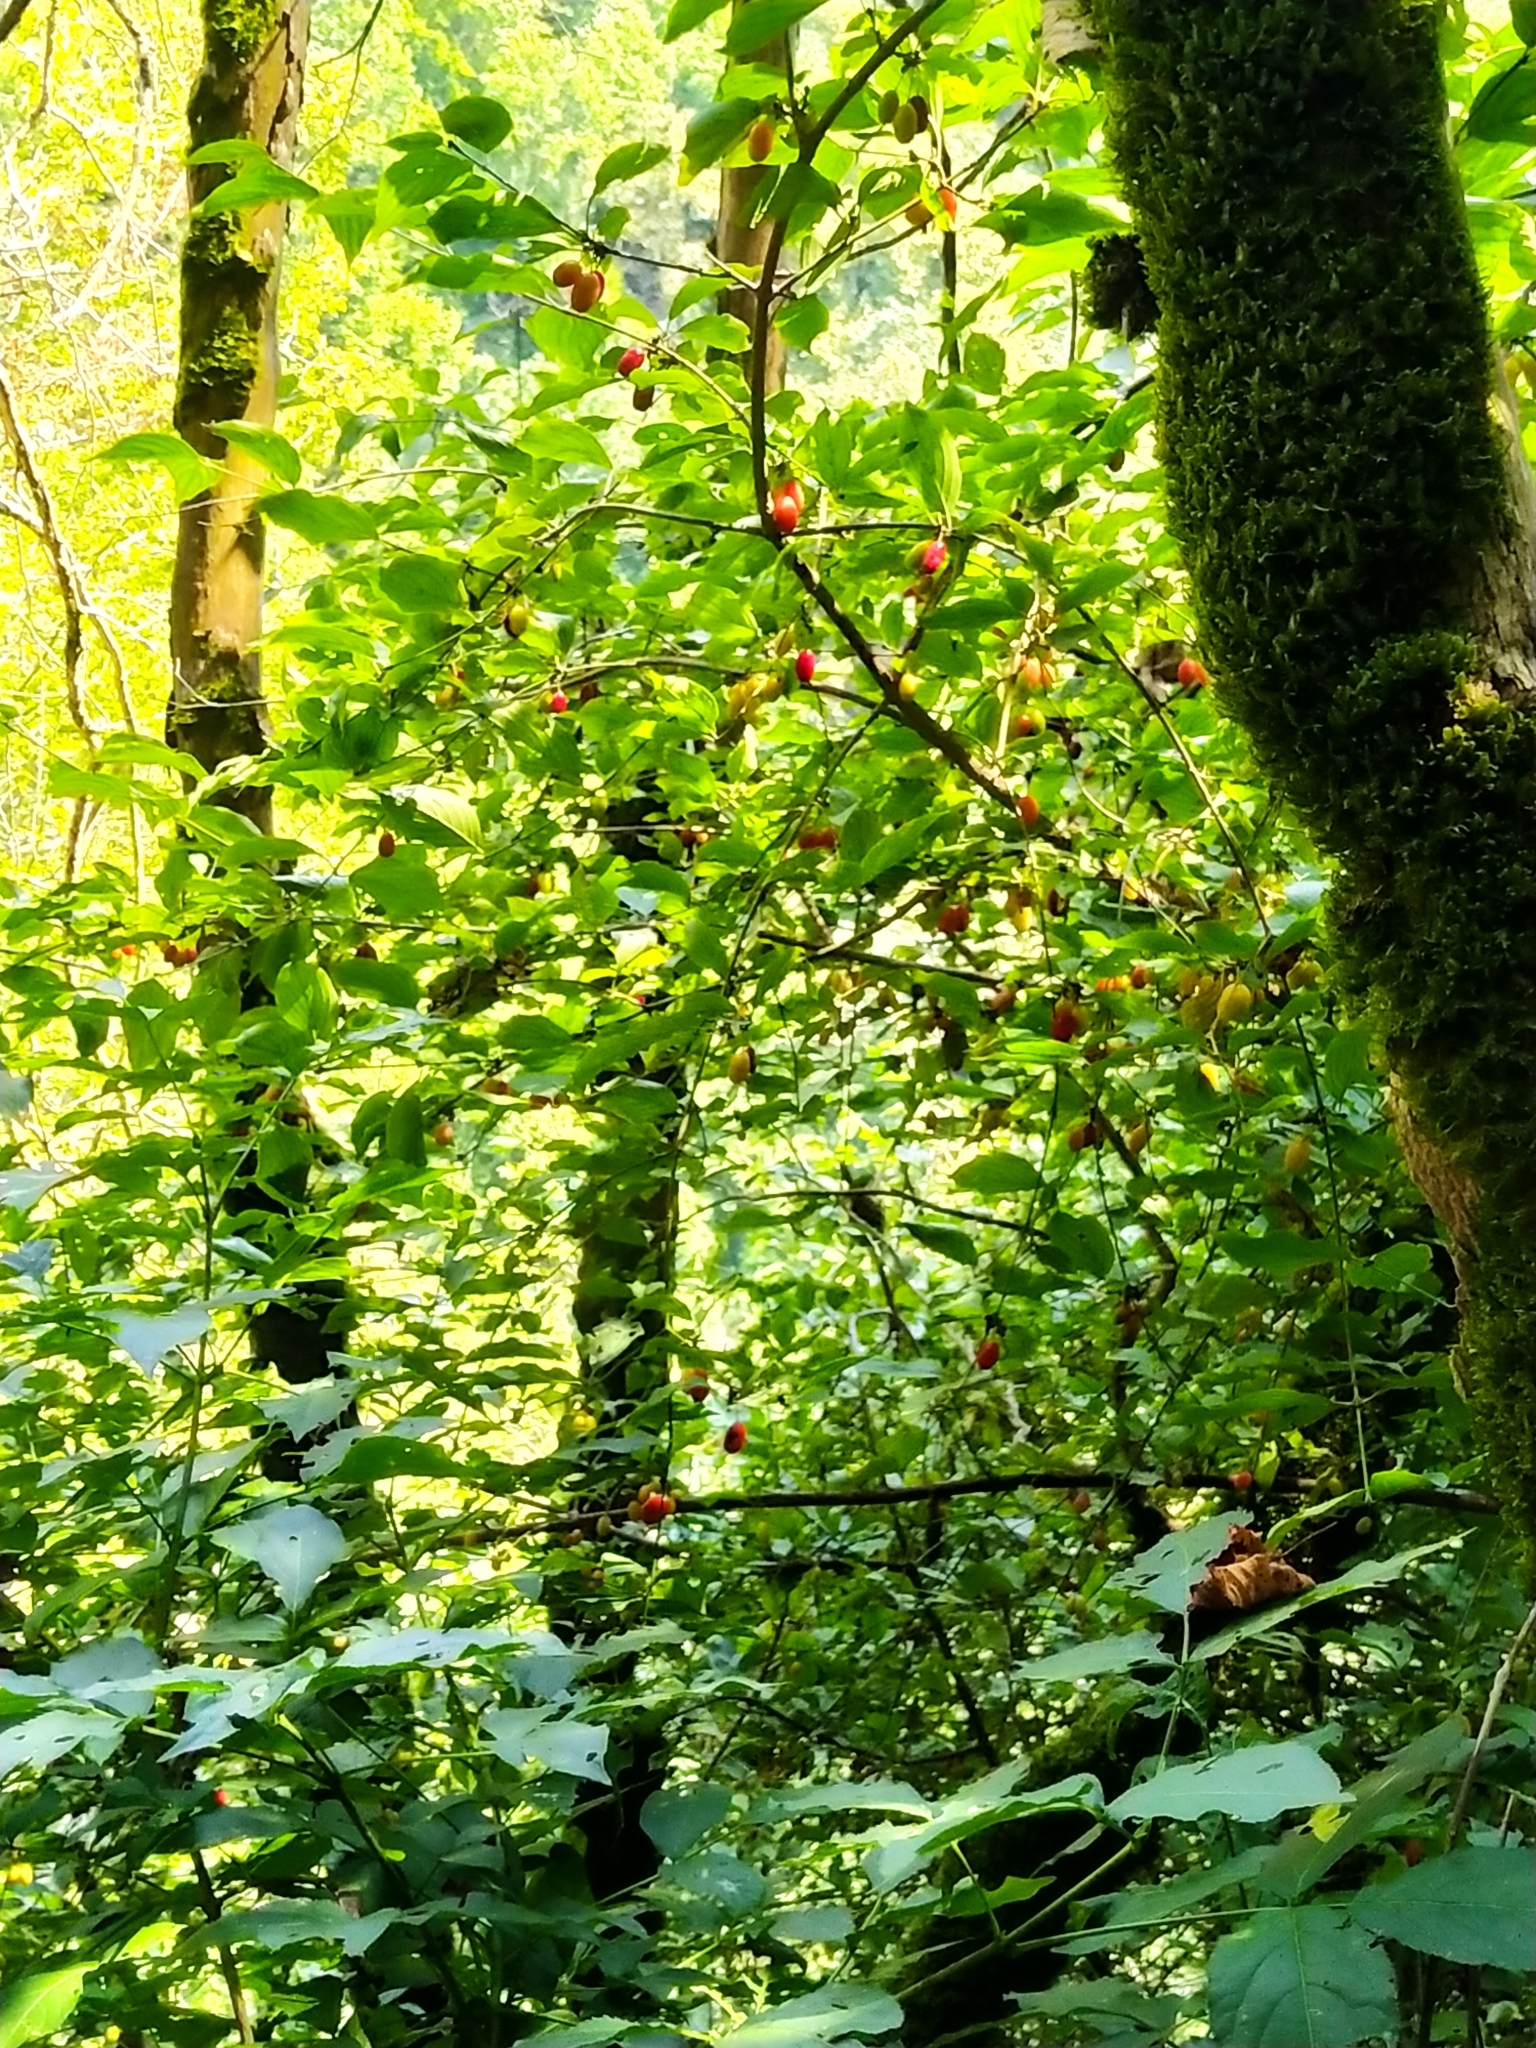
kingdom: Plantae
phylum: Tracheophyta
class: Magnoliopsida
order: Cornales
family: Cornaceae
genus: Cornus
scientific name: Cornus mas
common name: Cornelian-cherry
